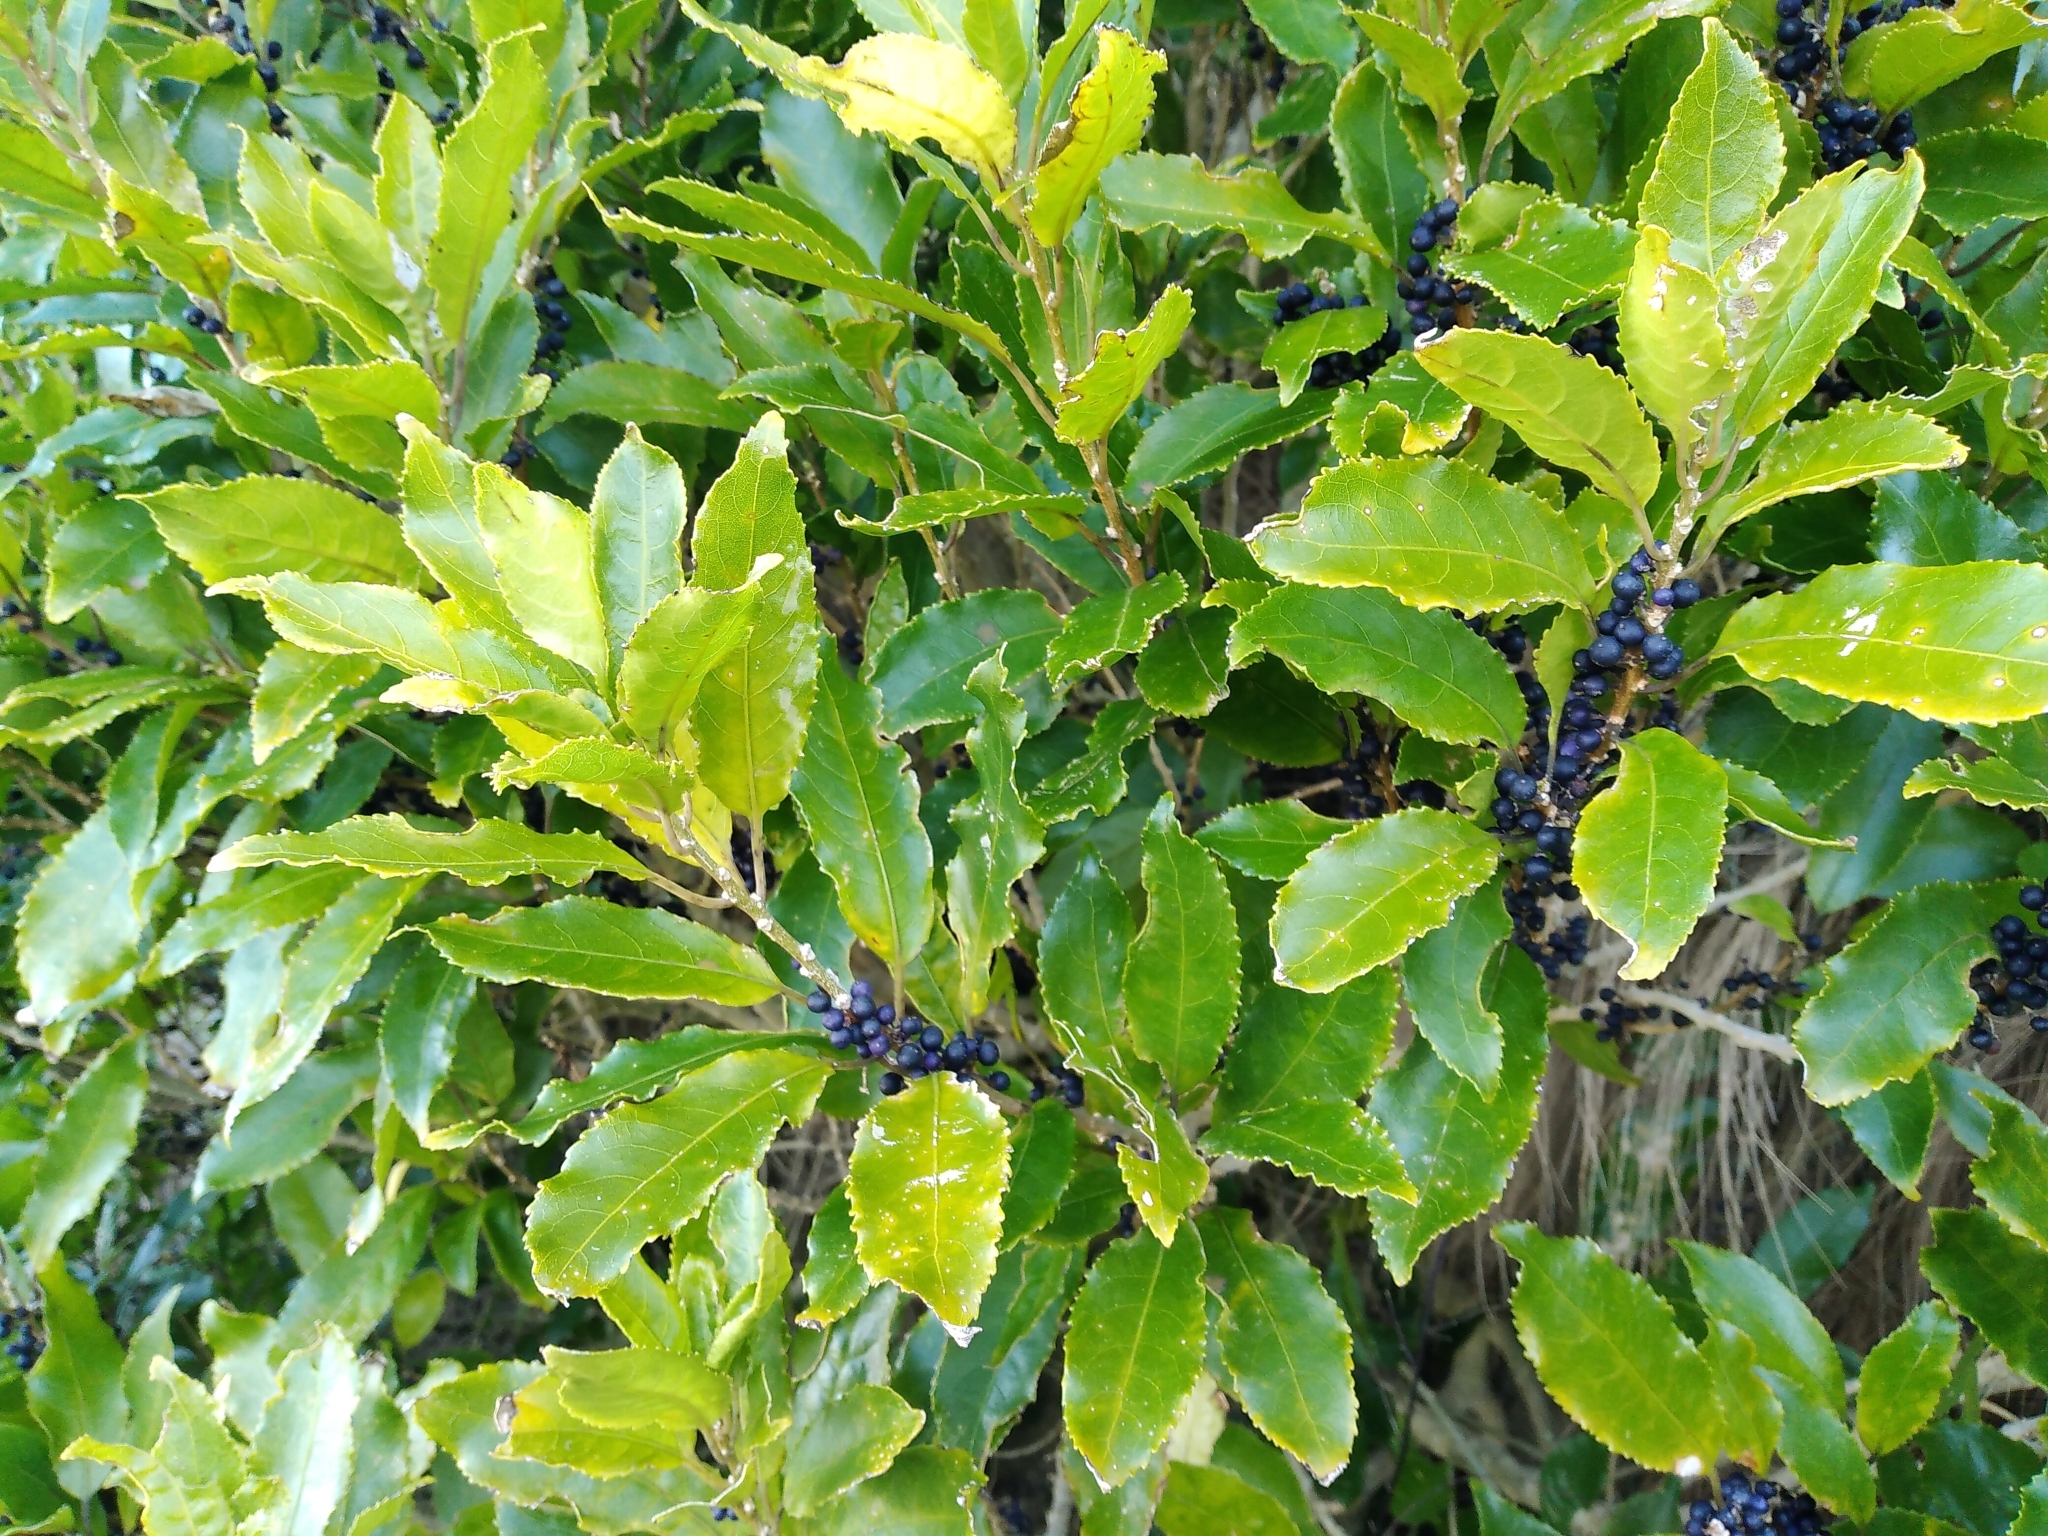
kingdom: Plantae
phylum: Tracheophyta
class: Magnoliopsida
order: Malpighiales
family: Violaceae
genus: Melicytus
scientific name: Melicytus ramiflorus
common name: Mahoe
